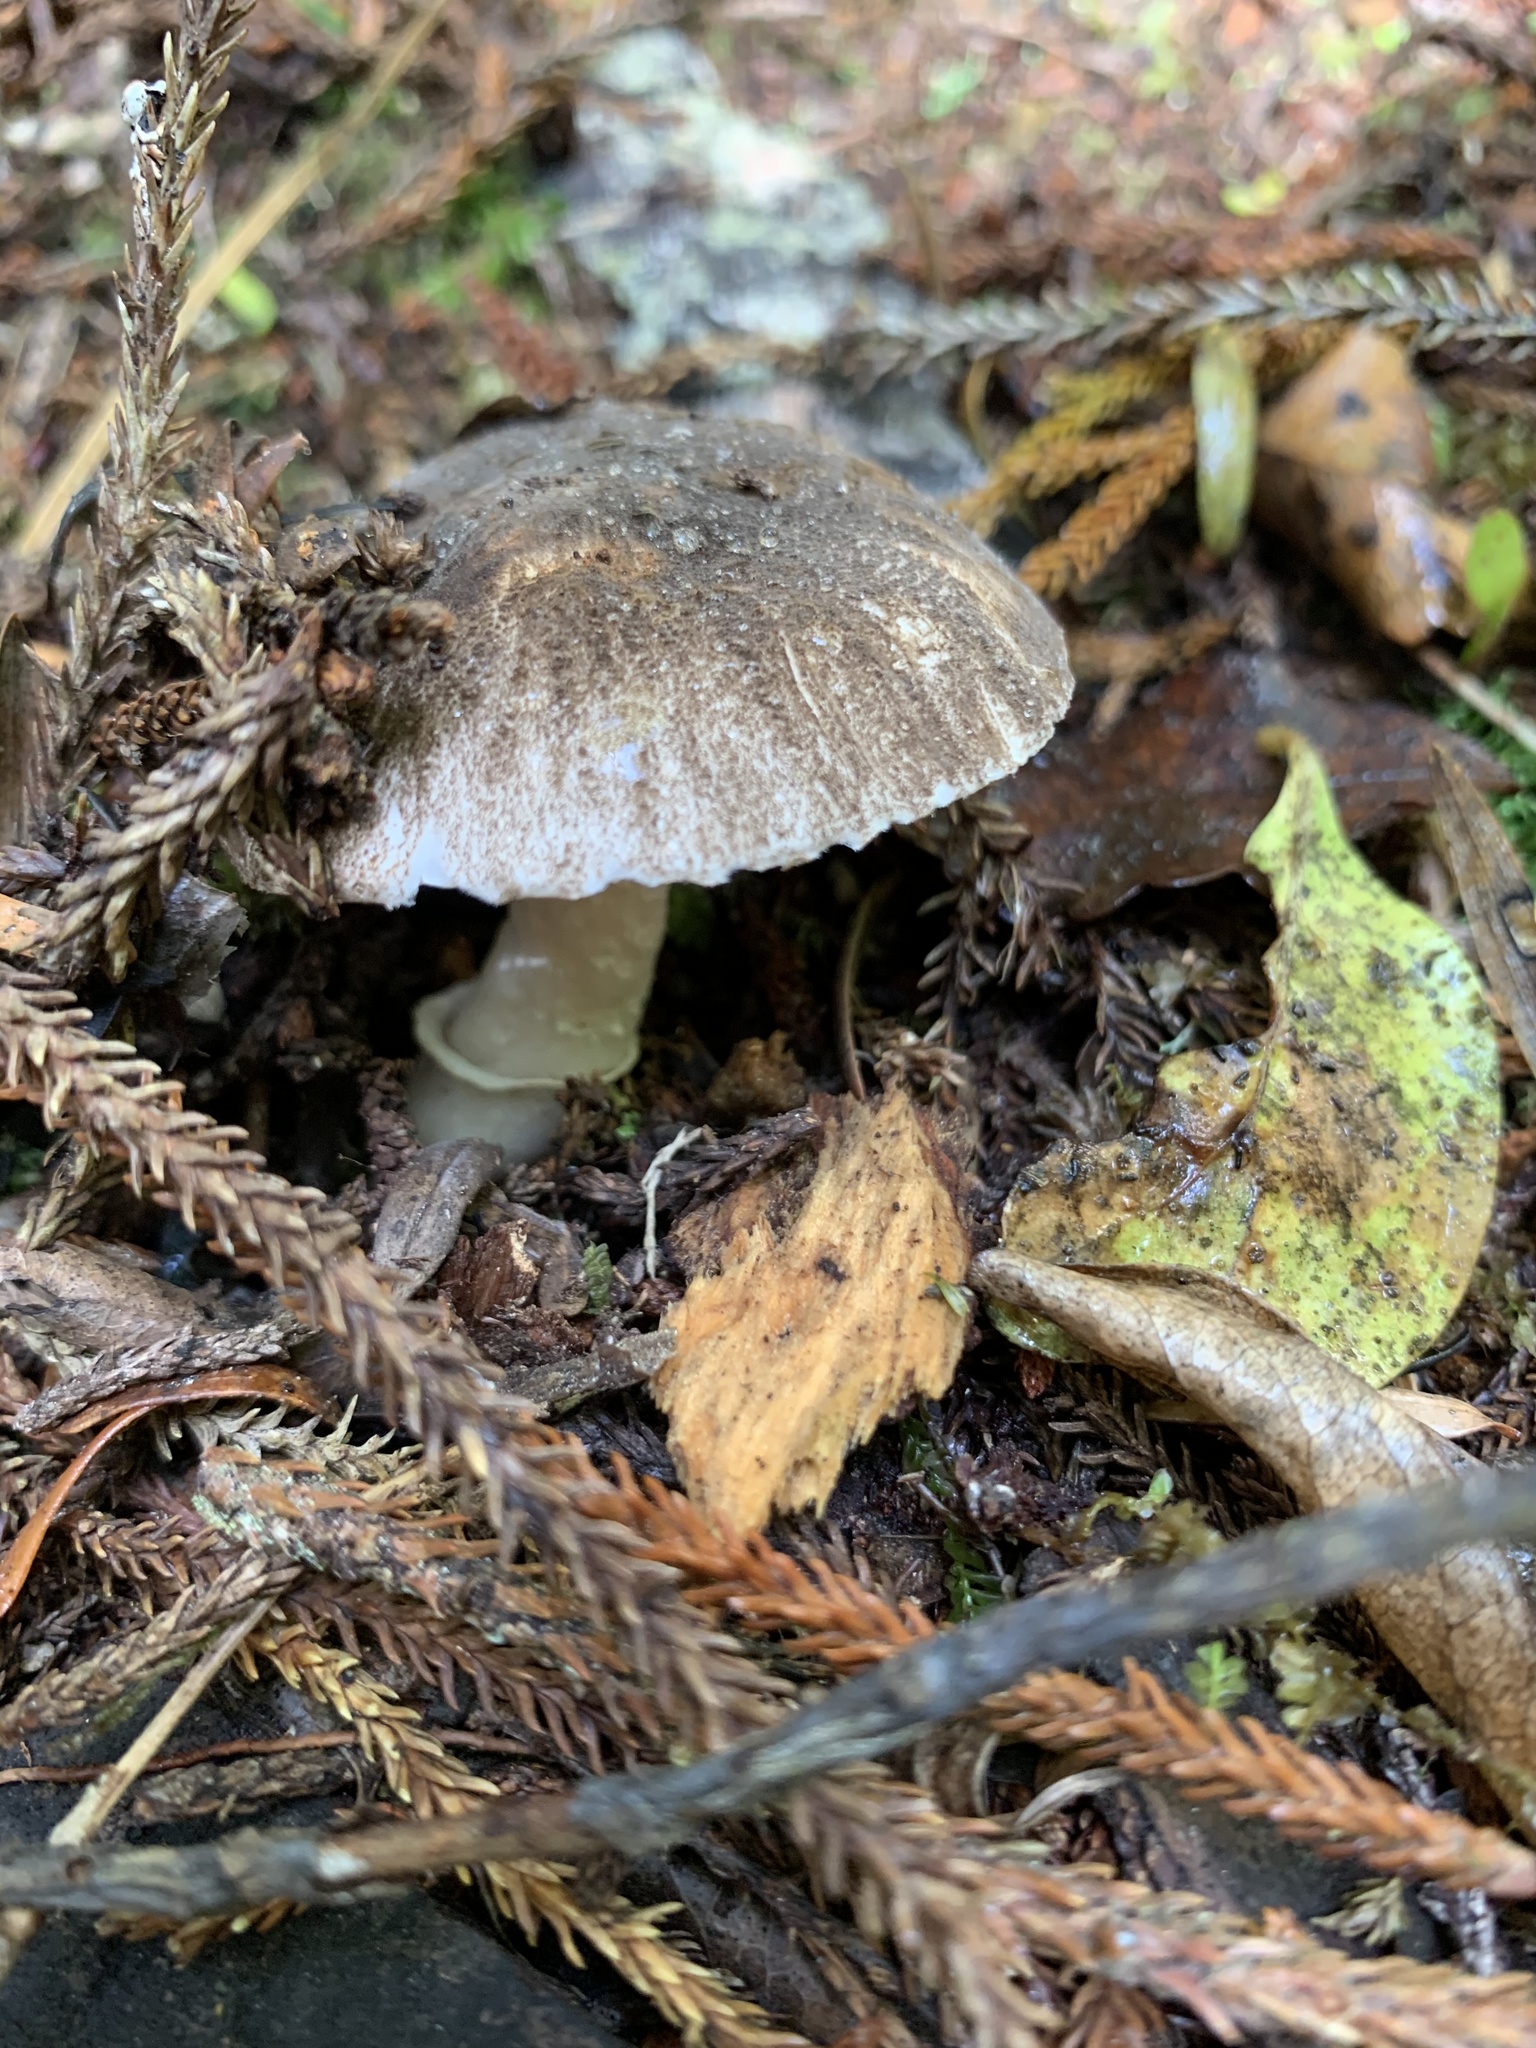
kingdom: Fungi
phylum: Basidiomycota
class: Agaricomycetes
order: Agaricales
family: Amanitaceae
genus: Amanita
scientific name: Amanita nehuta
